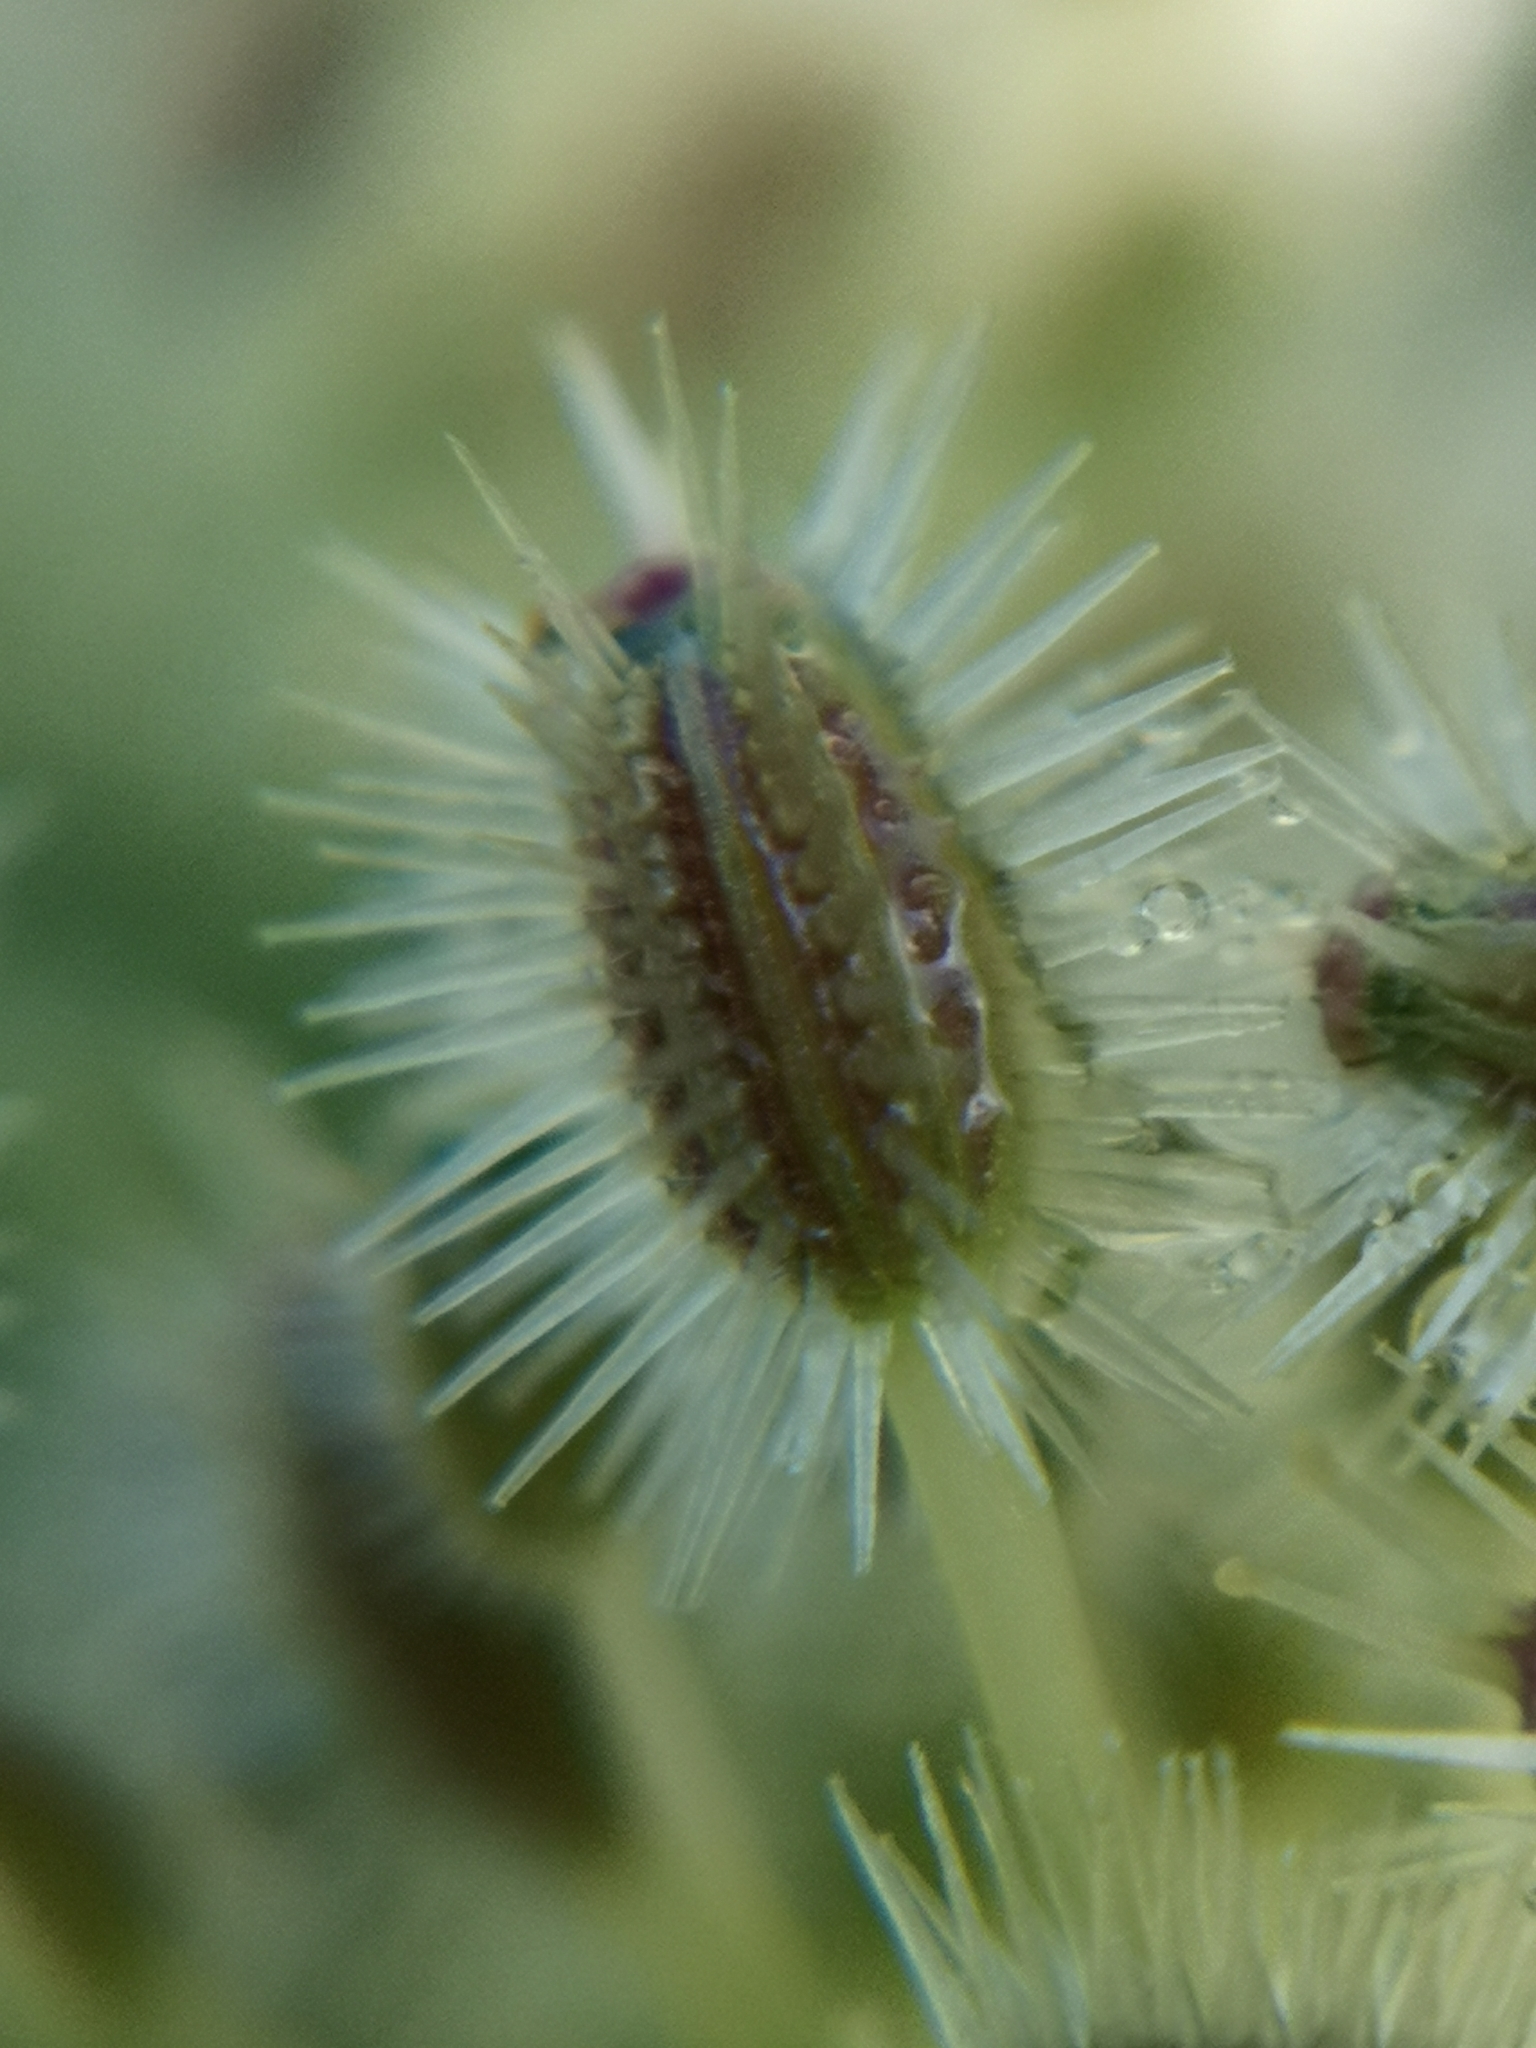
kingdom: Plantae
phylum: Tracheophyta
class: Magnoliopsida
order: Apiales
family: Apiaceae
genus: Daucus
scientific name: Daucus carota
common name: Wild carrot
